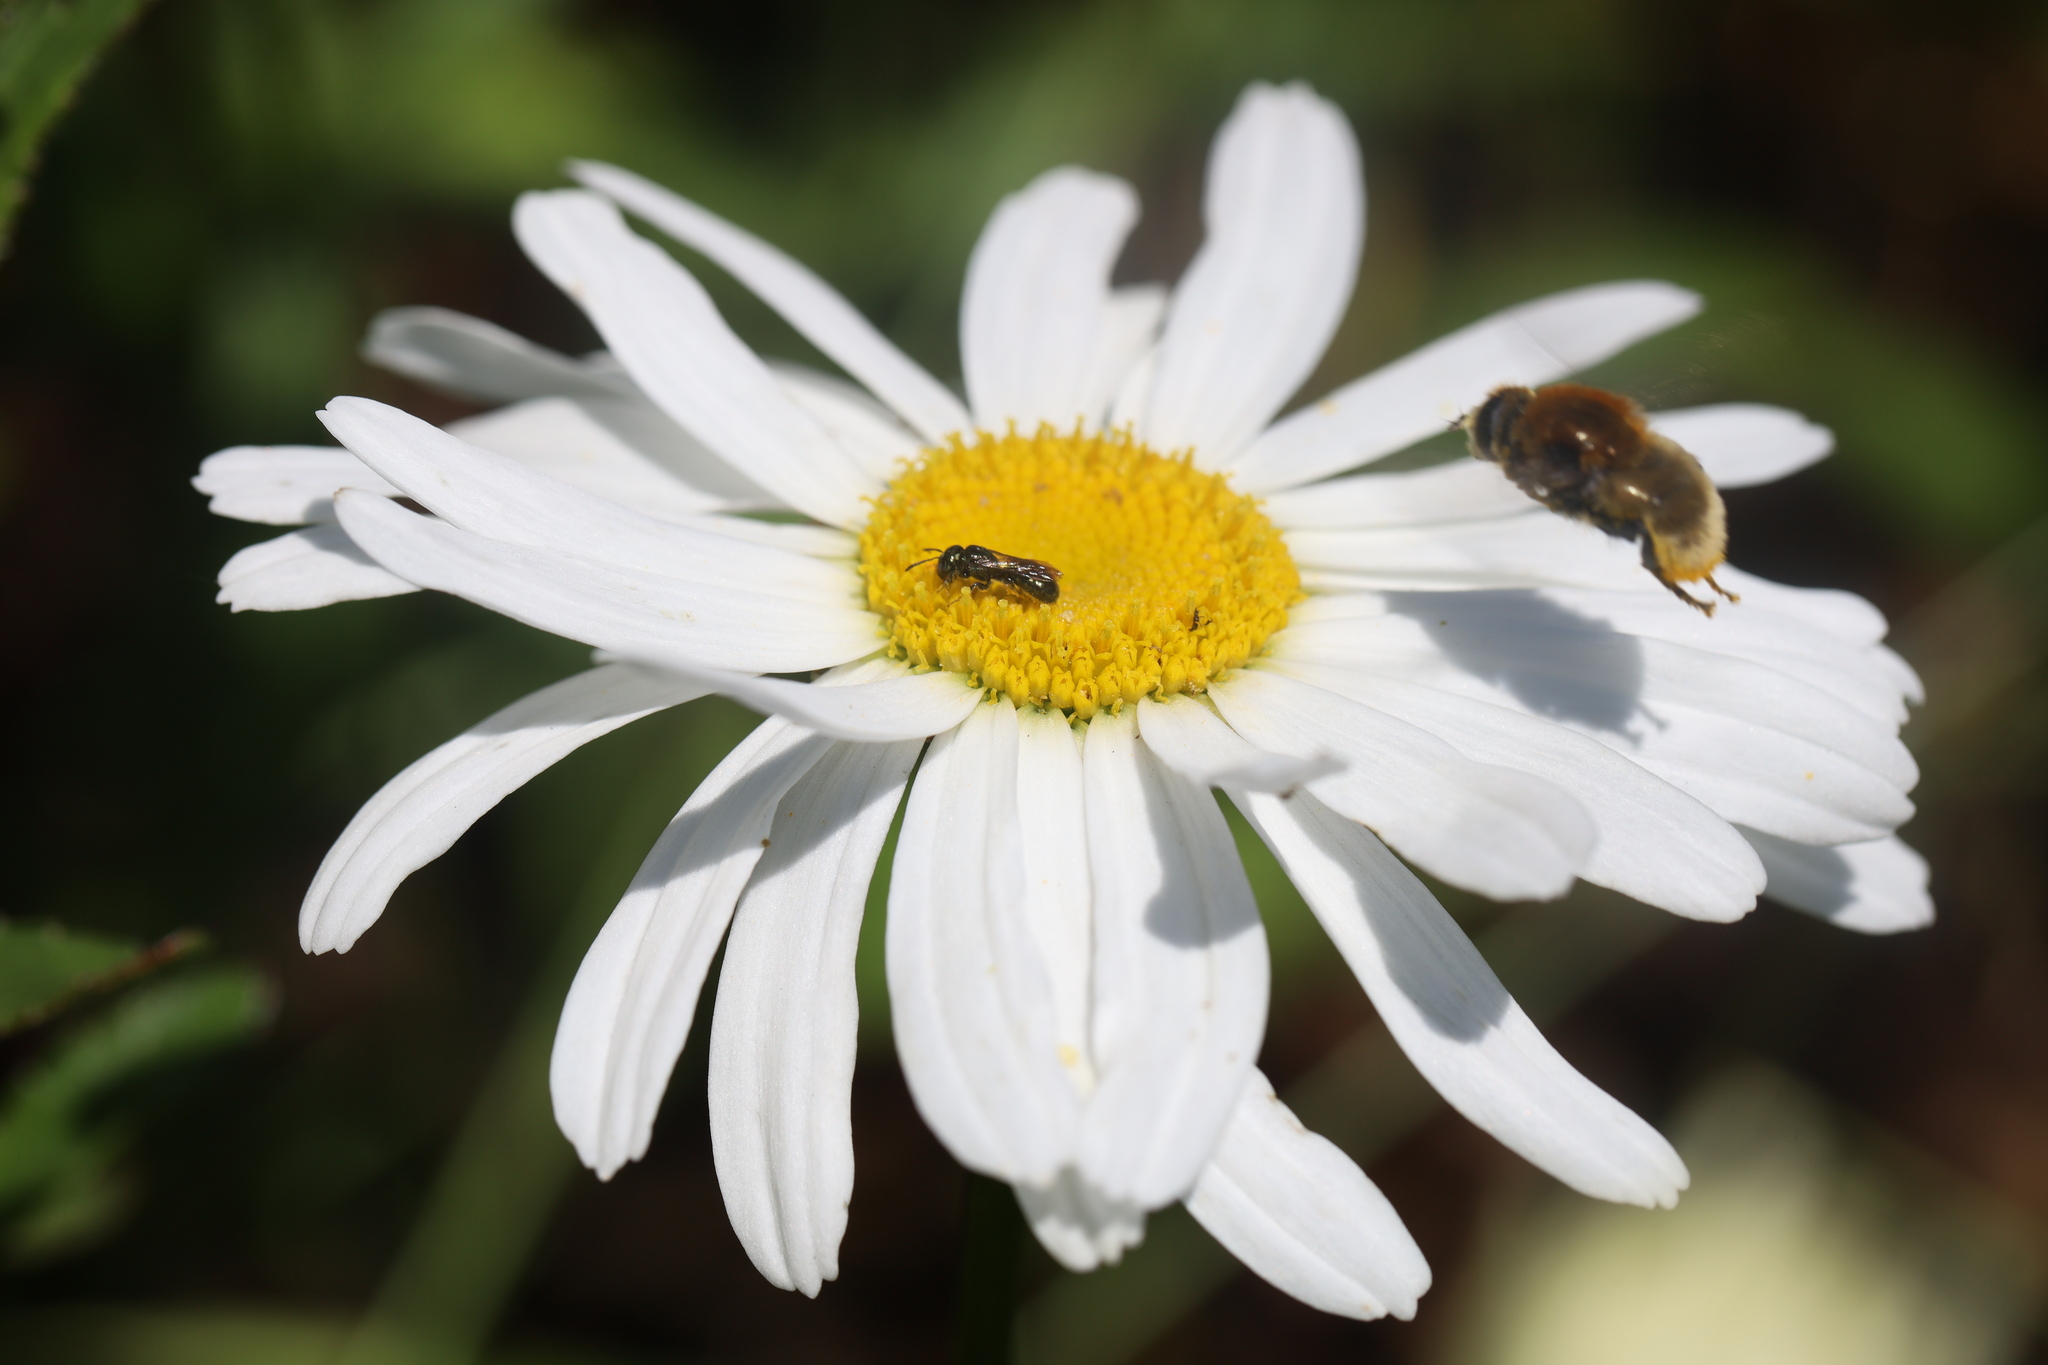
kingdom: Animalia
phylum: Arthropoda
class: Insecta
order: Diptera
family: Syrphidae
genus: Merodon
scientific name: Merodon equestris
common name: Greater bulb-fly
